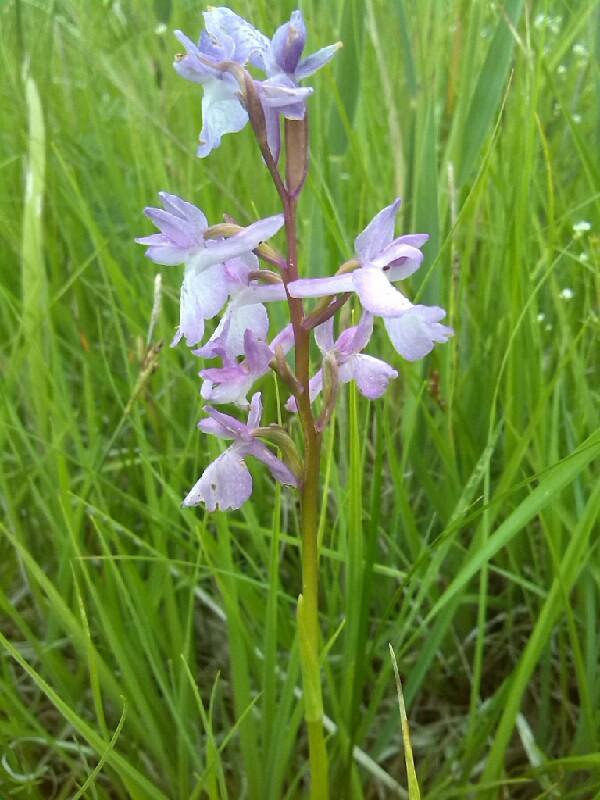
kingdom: Plantae
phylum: Tracheophyta
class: Liliopsida
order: Asparagales
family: Orchidaceae
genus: Anacamptis
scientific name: Anacamptis palustris
